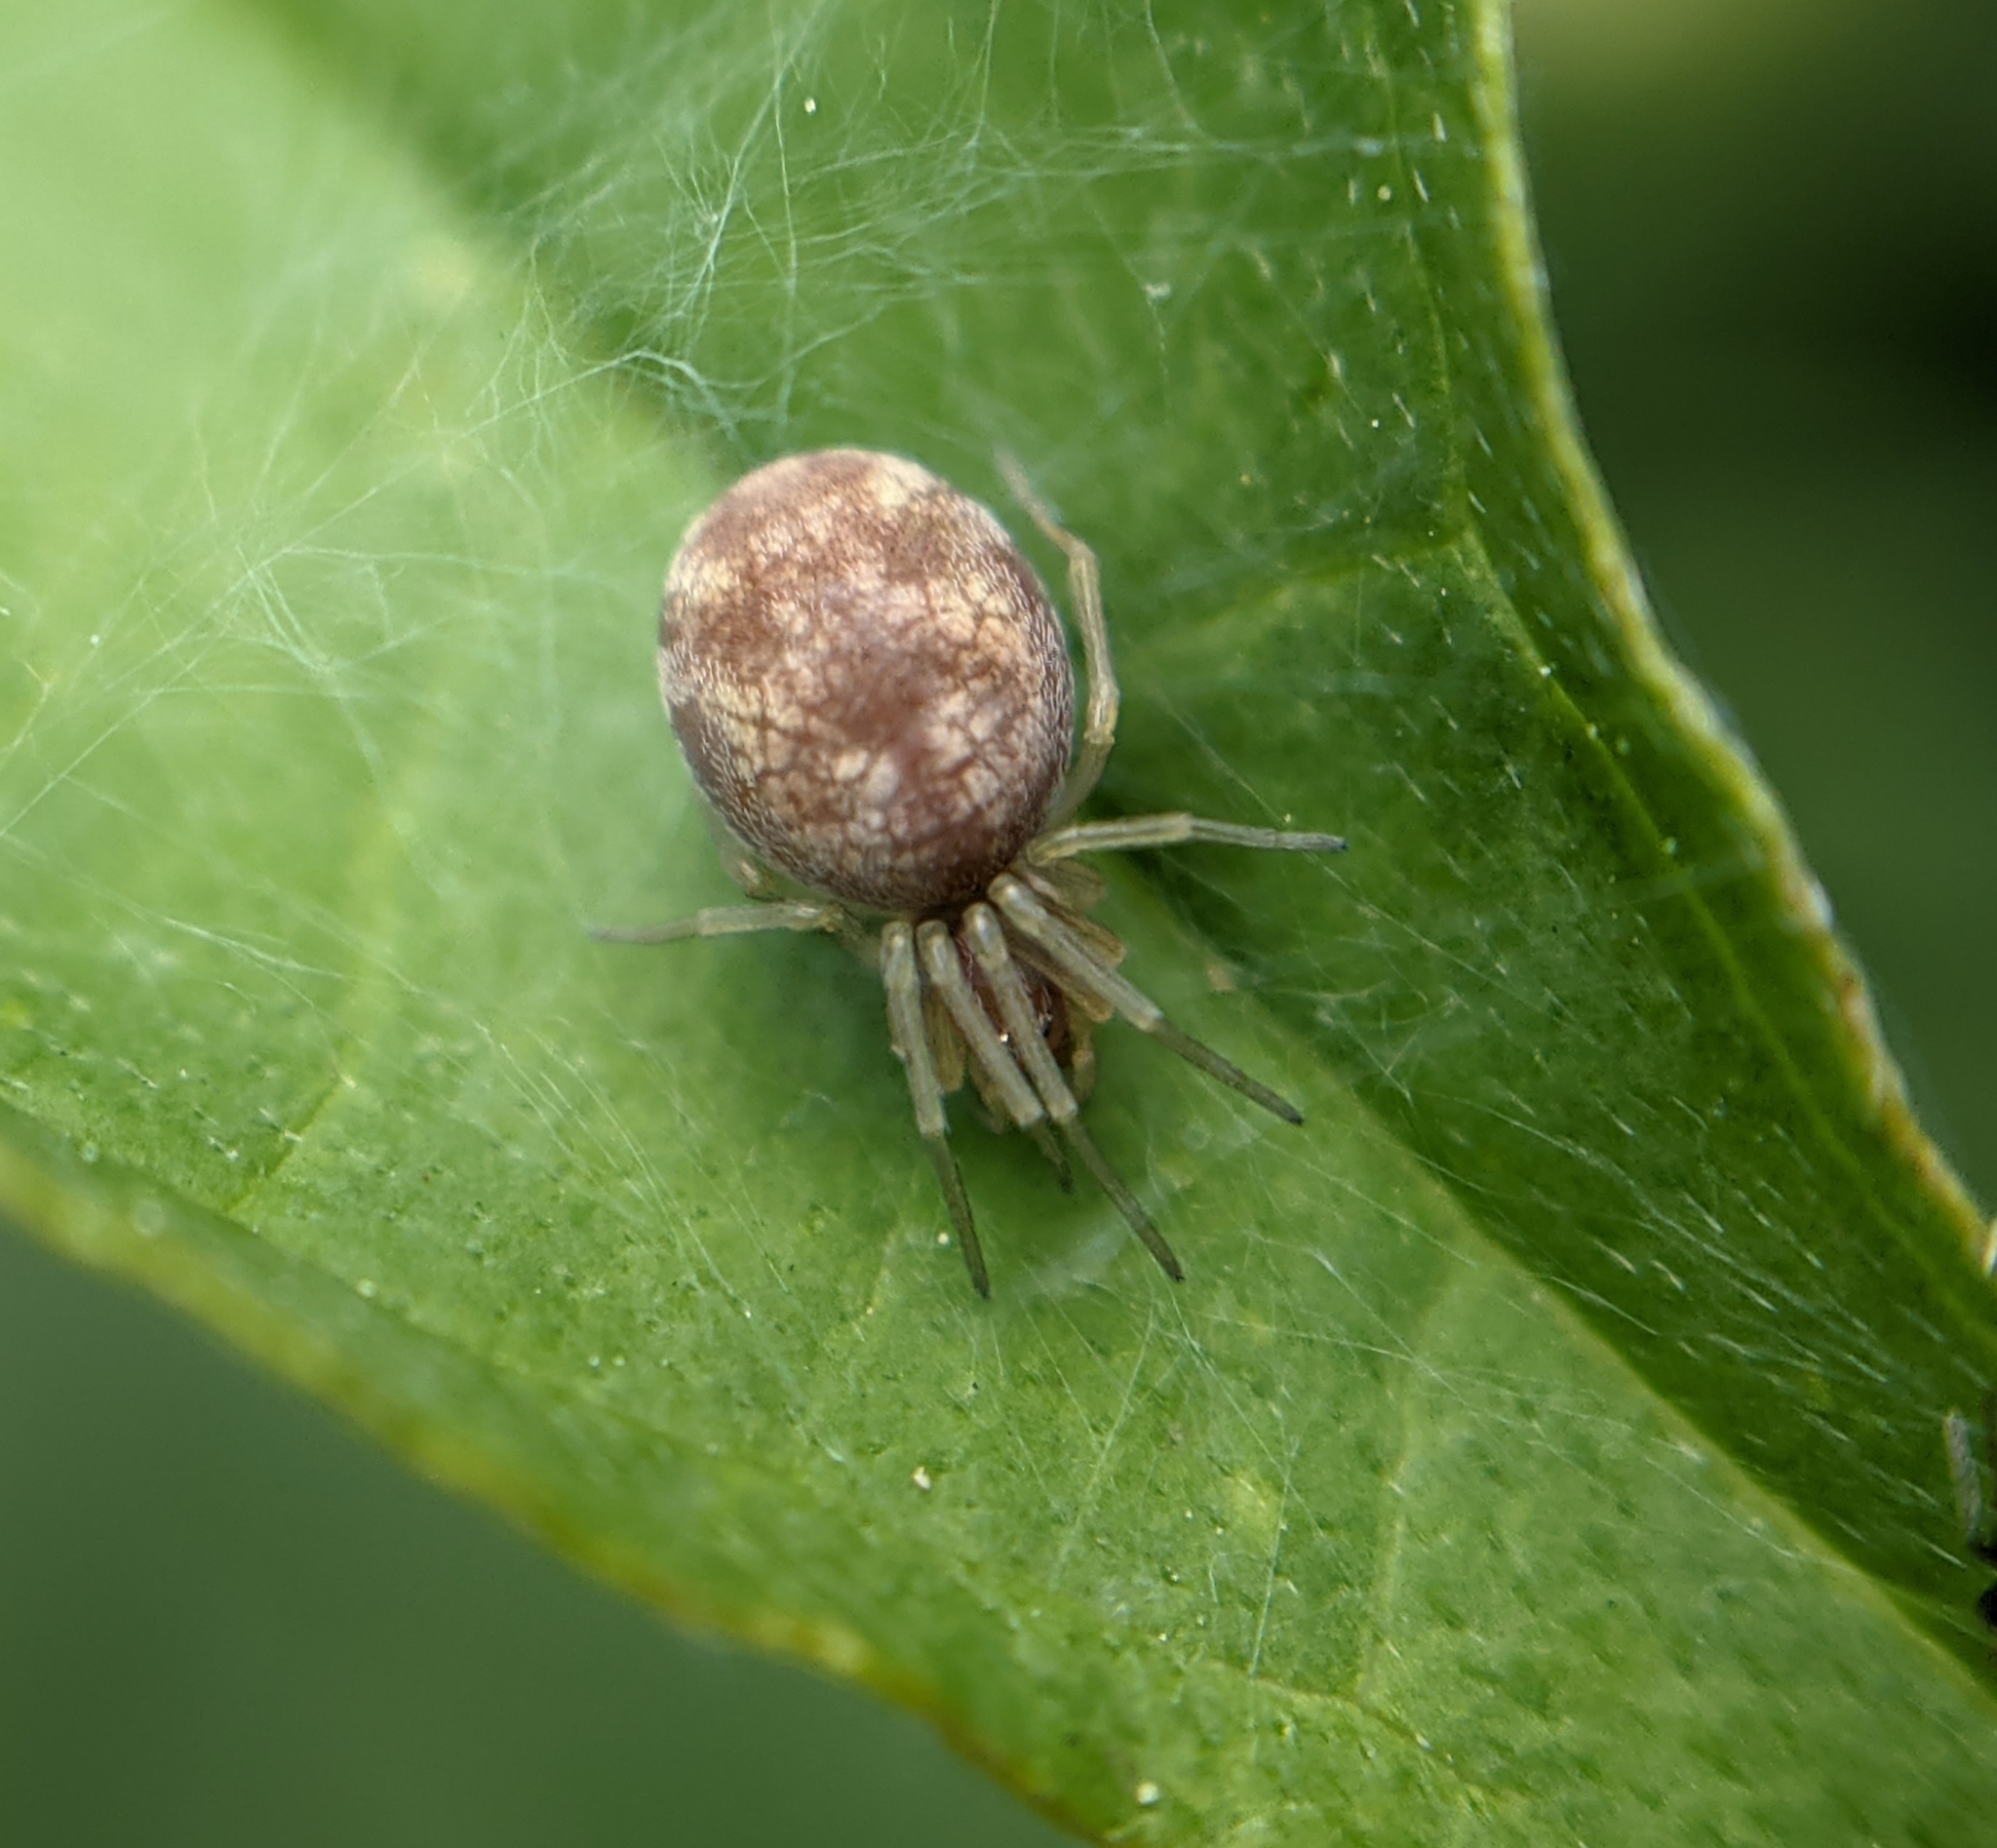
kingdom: Animalia
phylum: Arthropoda
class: Arachnida
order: Araneae
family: Dictynidae
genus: Nigma
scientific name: Nigma flavescens
